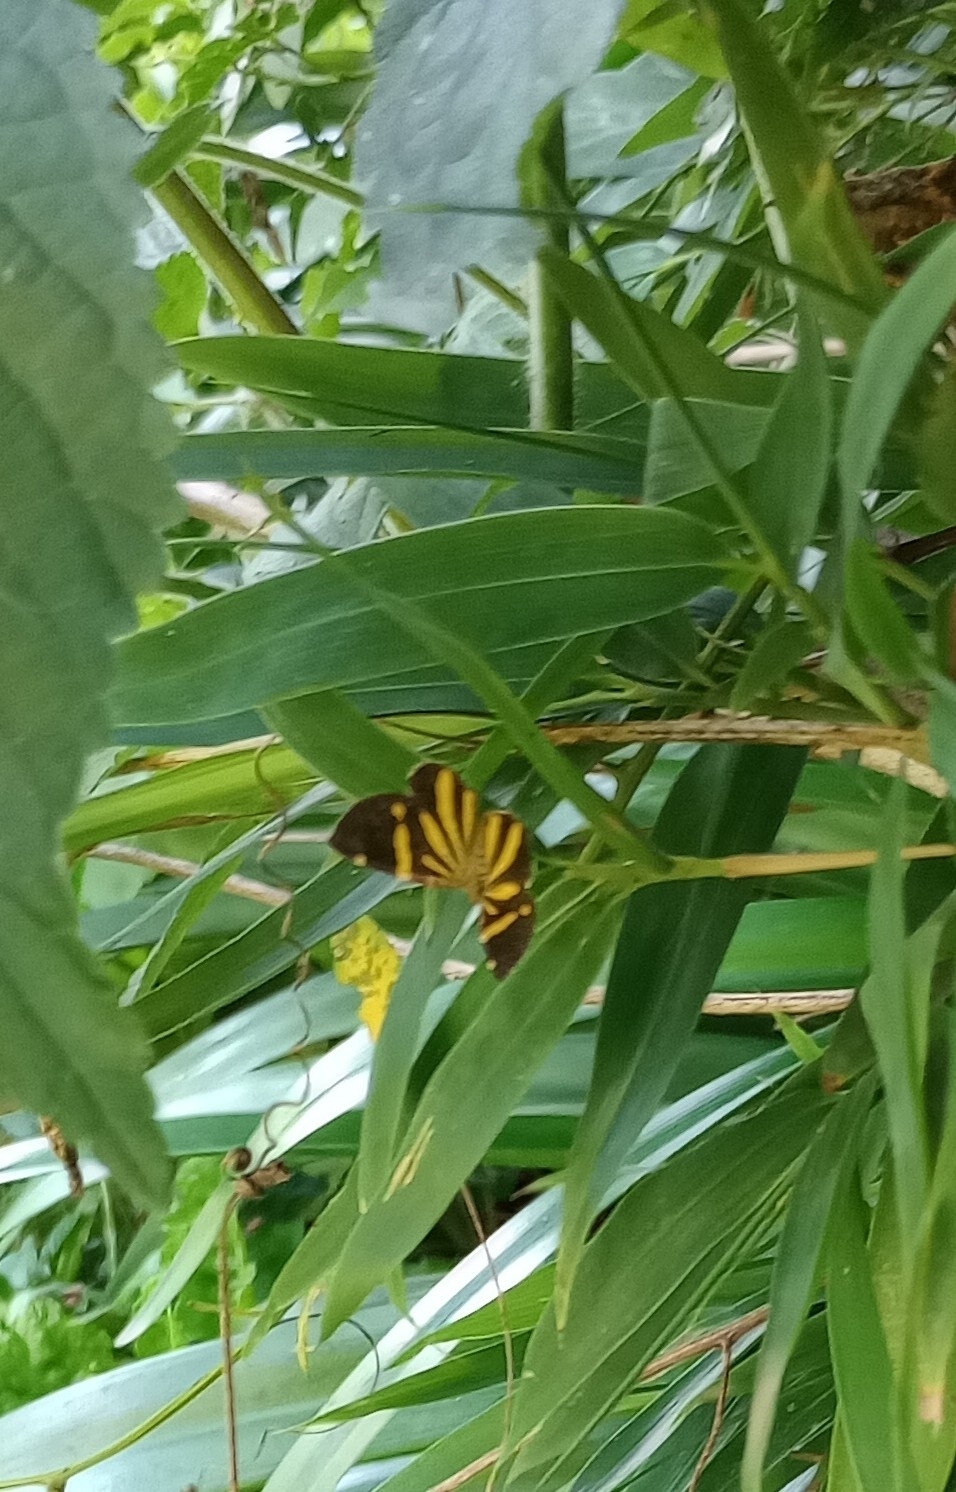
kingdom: Animalia
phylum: Arthropoda
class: Insecta
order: Lepidoptera
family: Geometridae
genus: Heterusia
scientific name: Heterusia quadruplicaria
